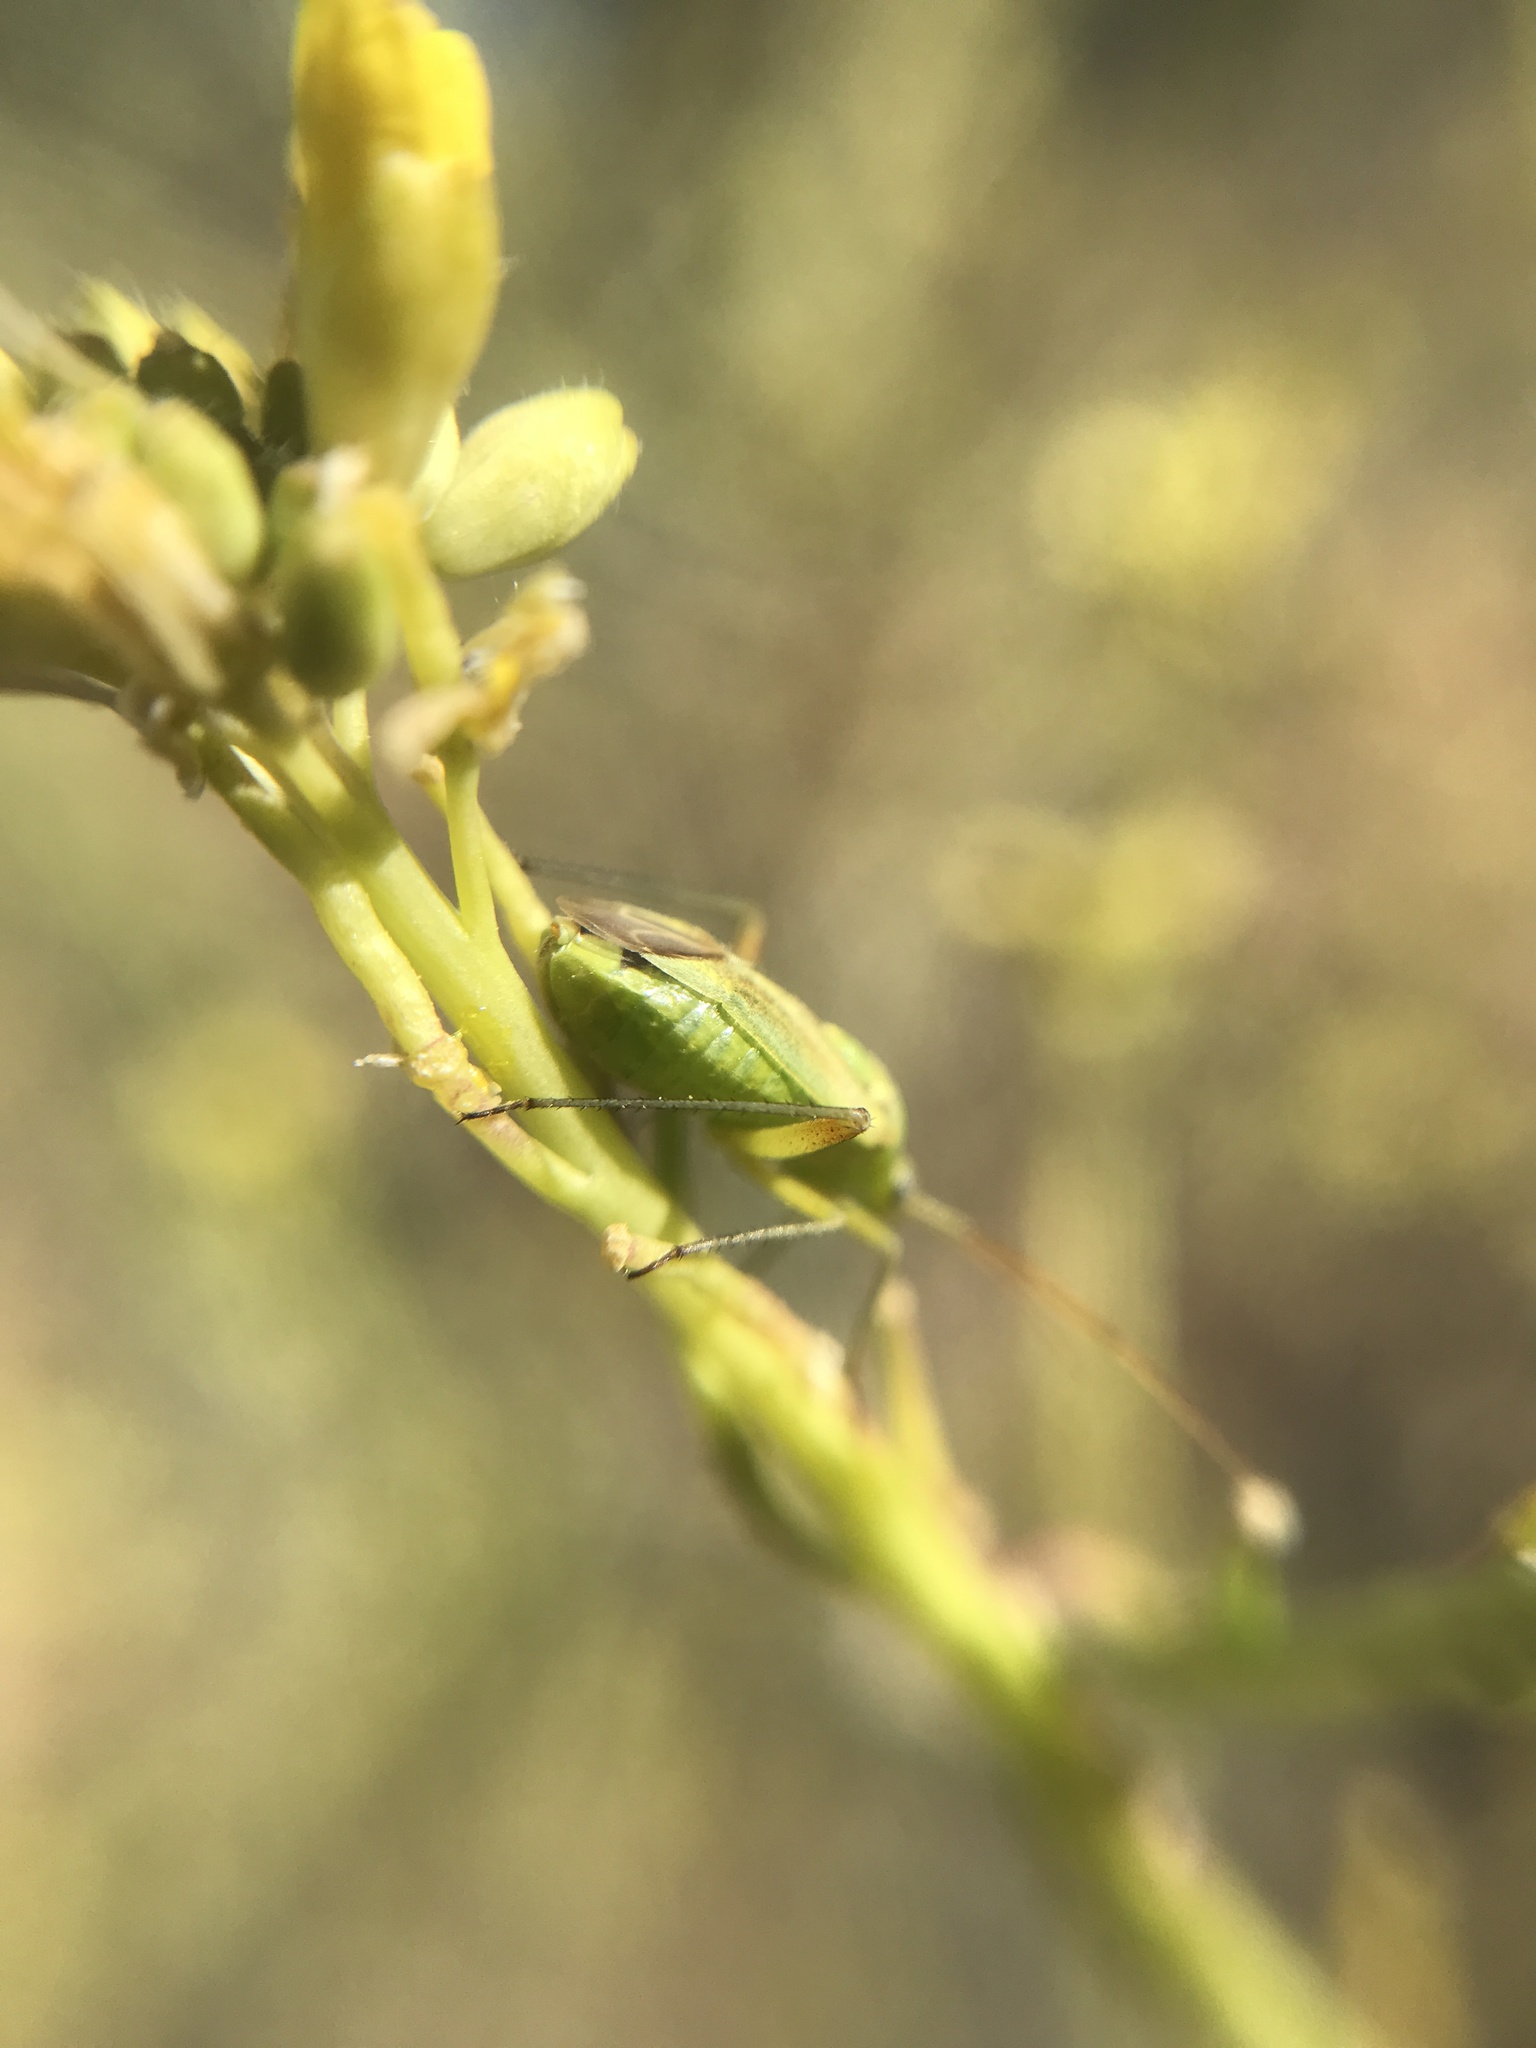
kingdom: Animalia
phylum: Arthropoda
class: Insecta
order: Hemiptera
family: Miridae
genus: Closterotomus
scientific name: Closterotomus norvegicus
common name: Plant bug
